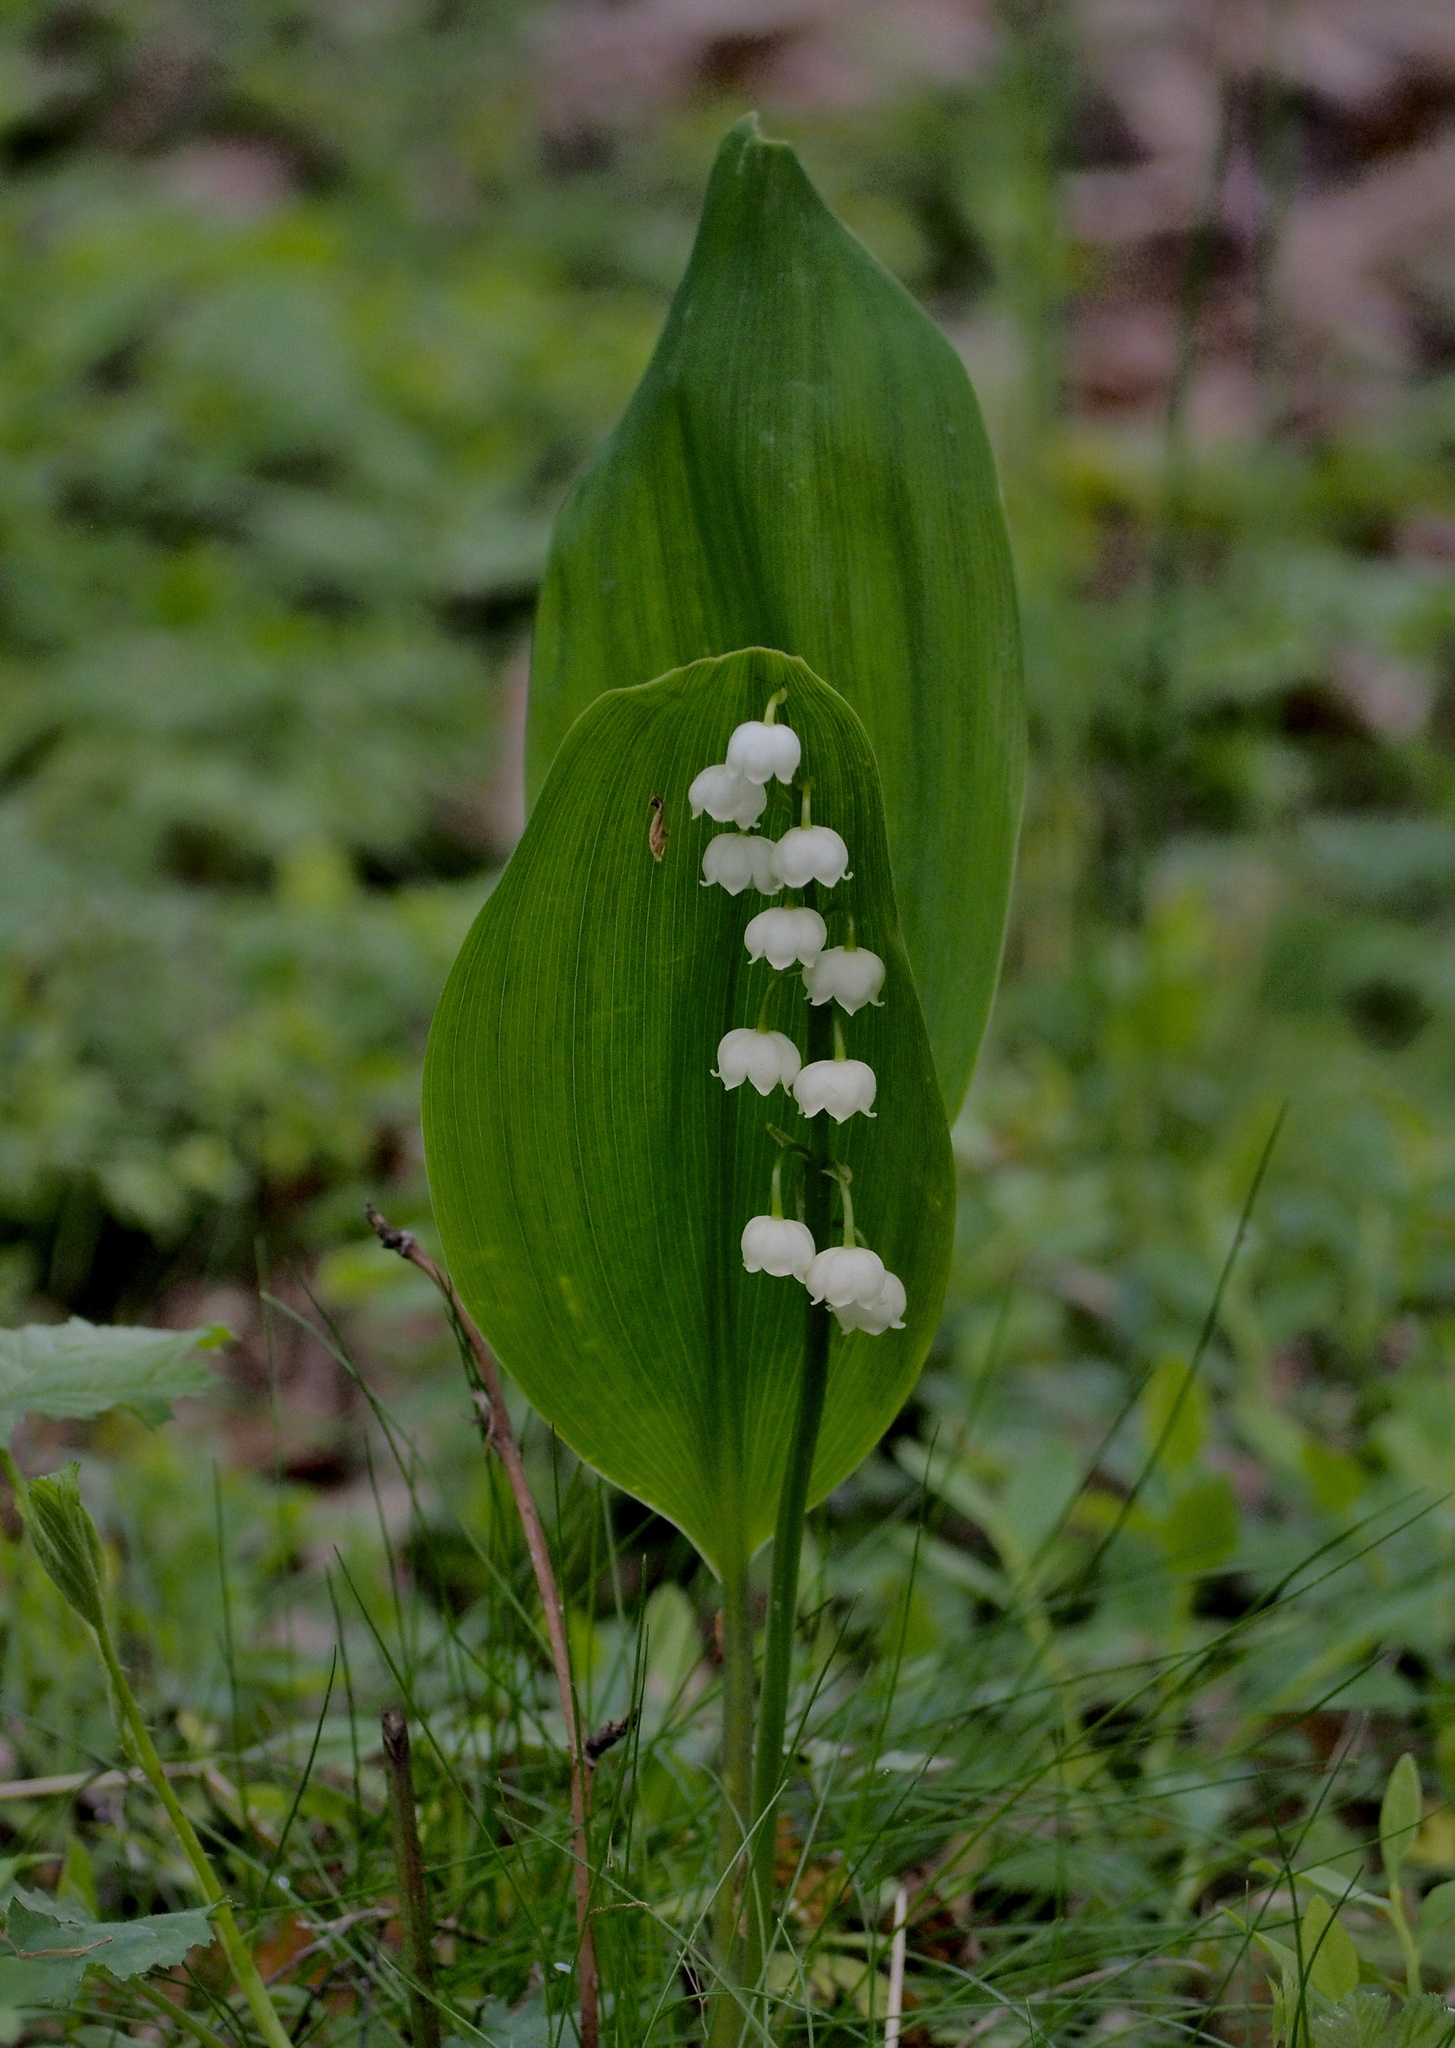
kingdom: Plantae
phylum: Tracheophyta
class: Liliopsida
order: Asparagales
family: Asparagaceae
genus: Convallaria
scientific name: Convallaria majalis
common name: Lily-of-the-valley
